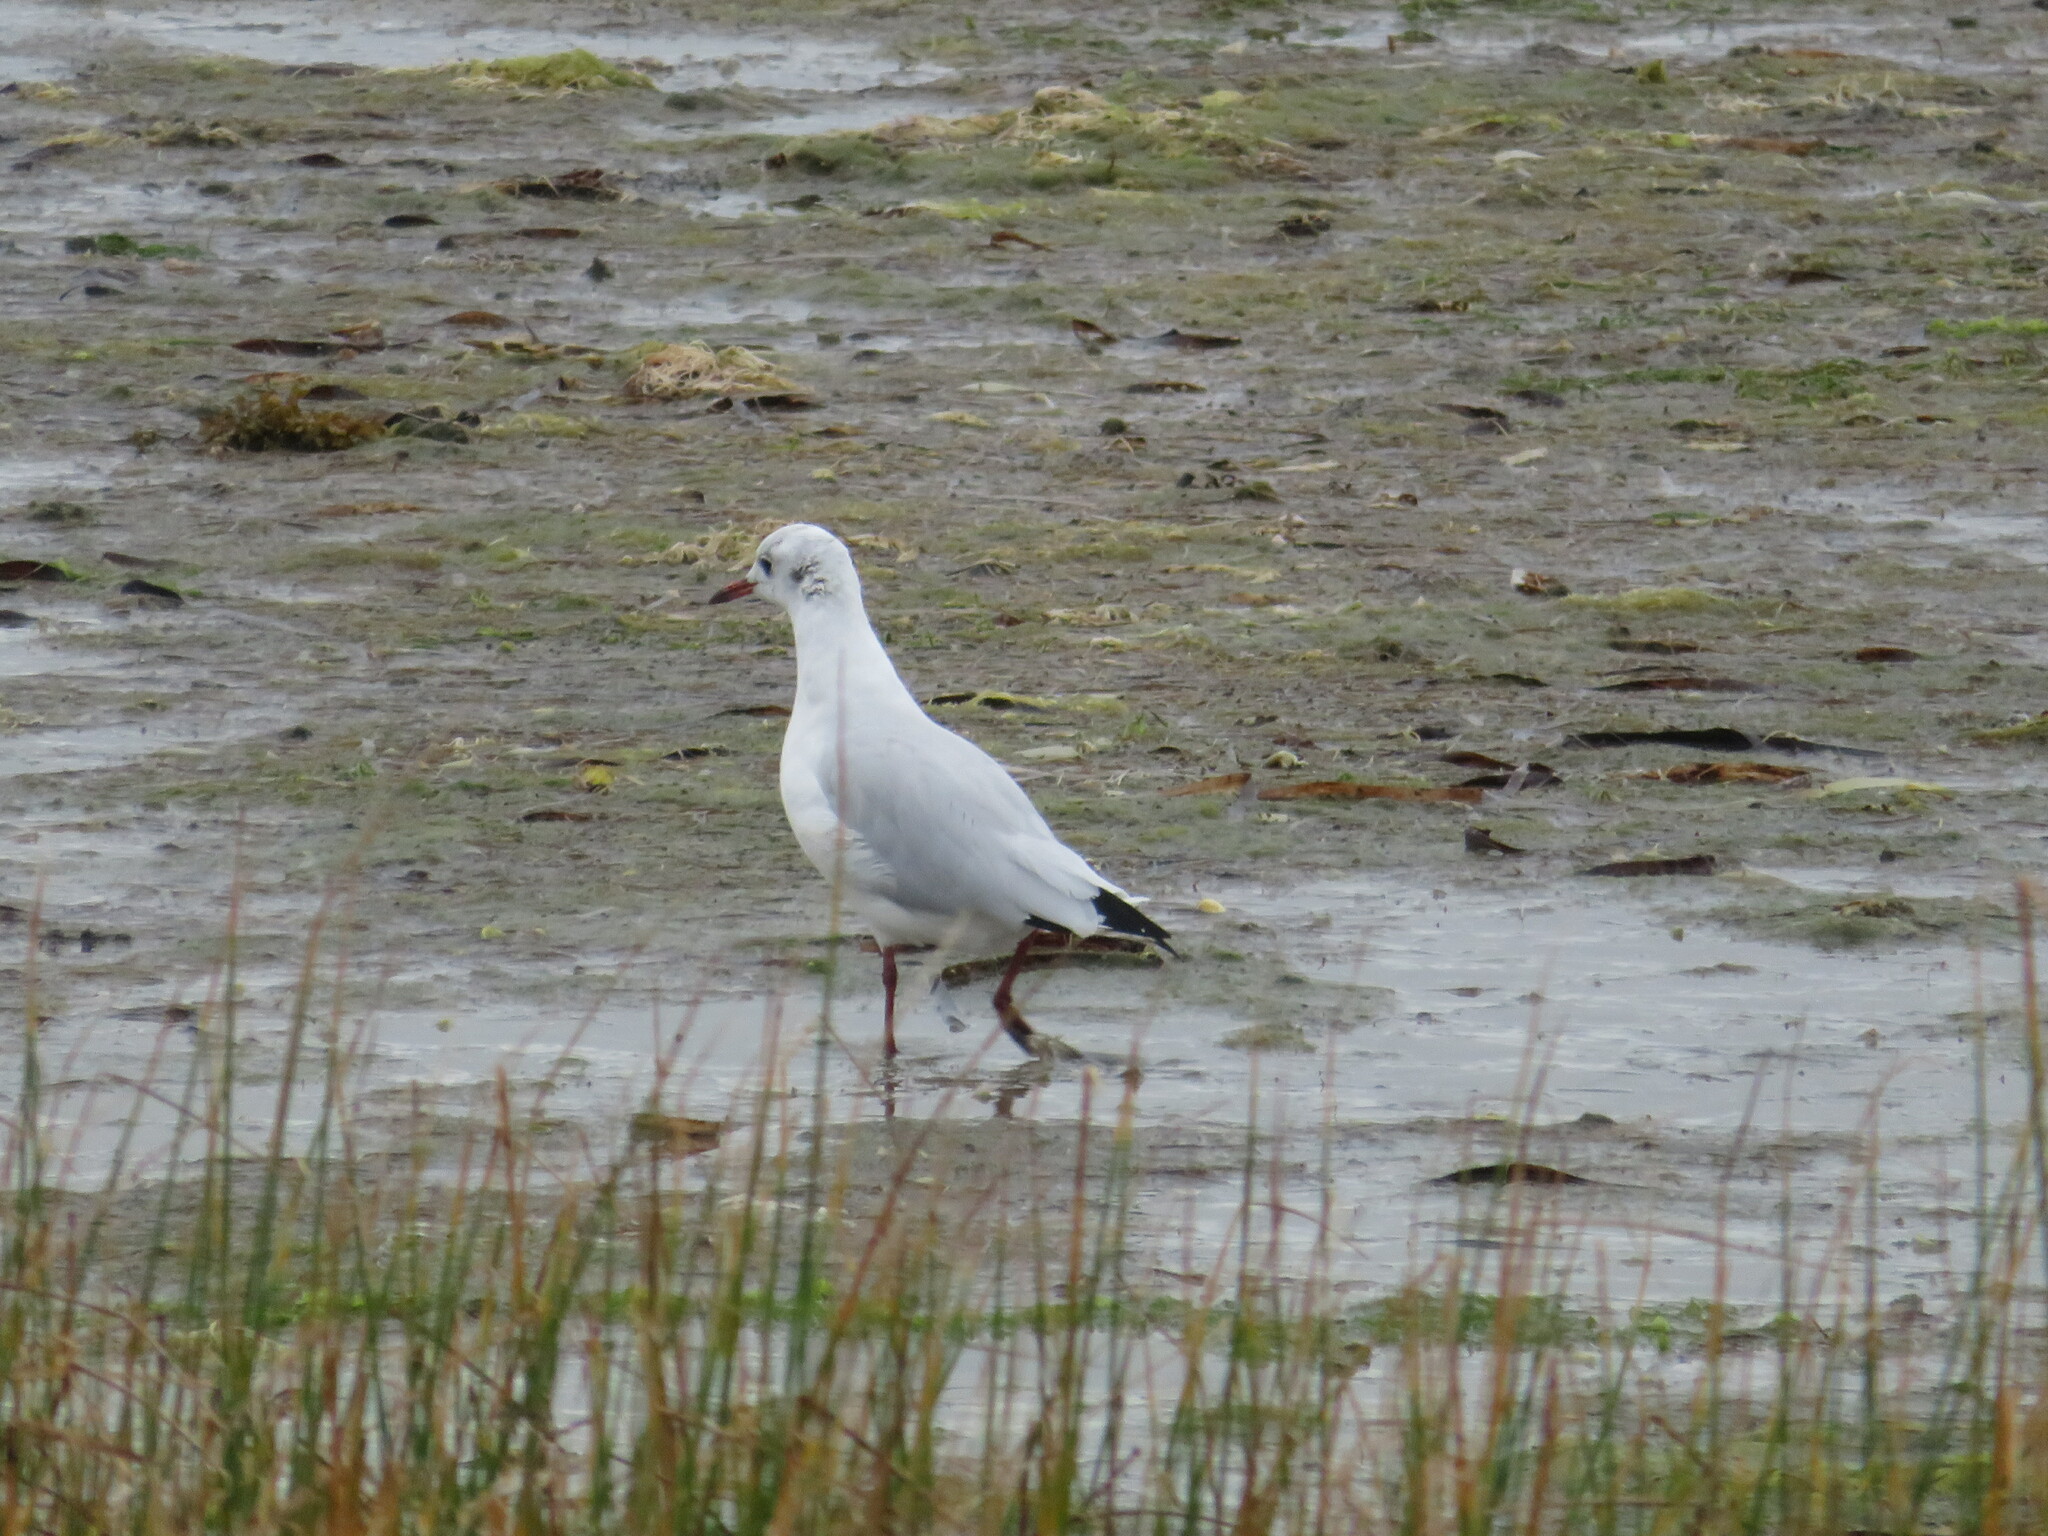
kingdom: Animalia
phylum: Chordata
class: Aves
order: Charadriiformes
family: Laridae
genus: Chroicocephalus
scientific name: Chroicocephalus ridibundus
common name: Black-headed gull
